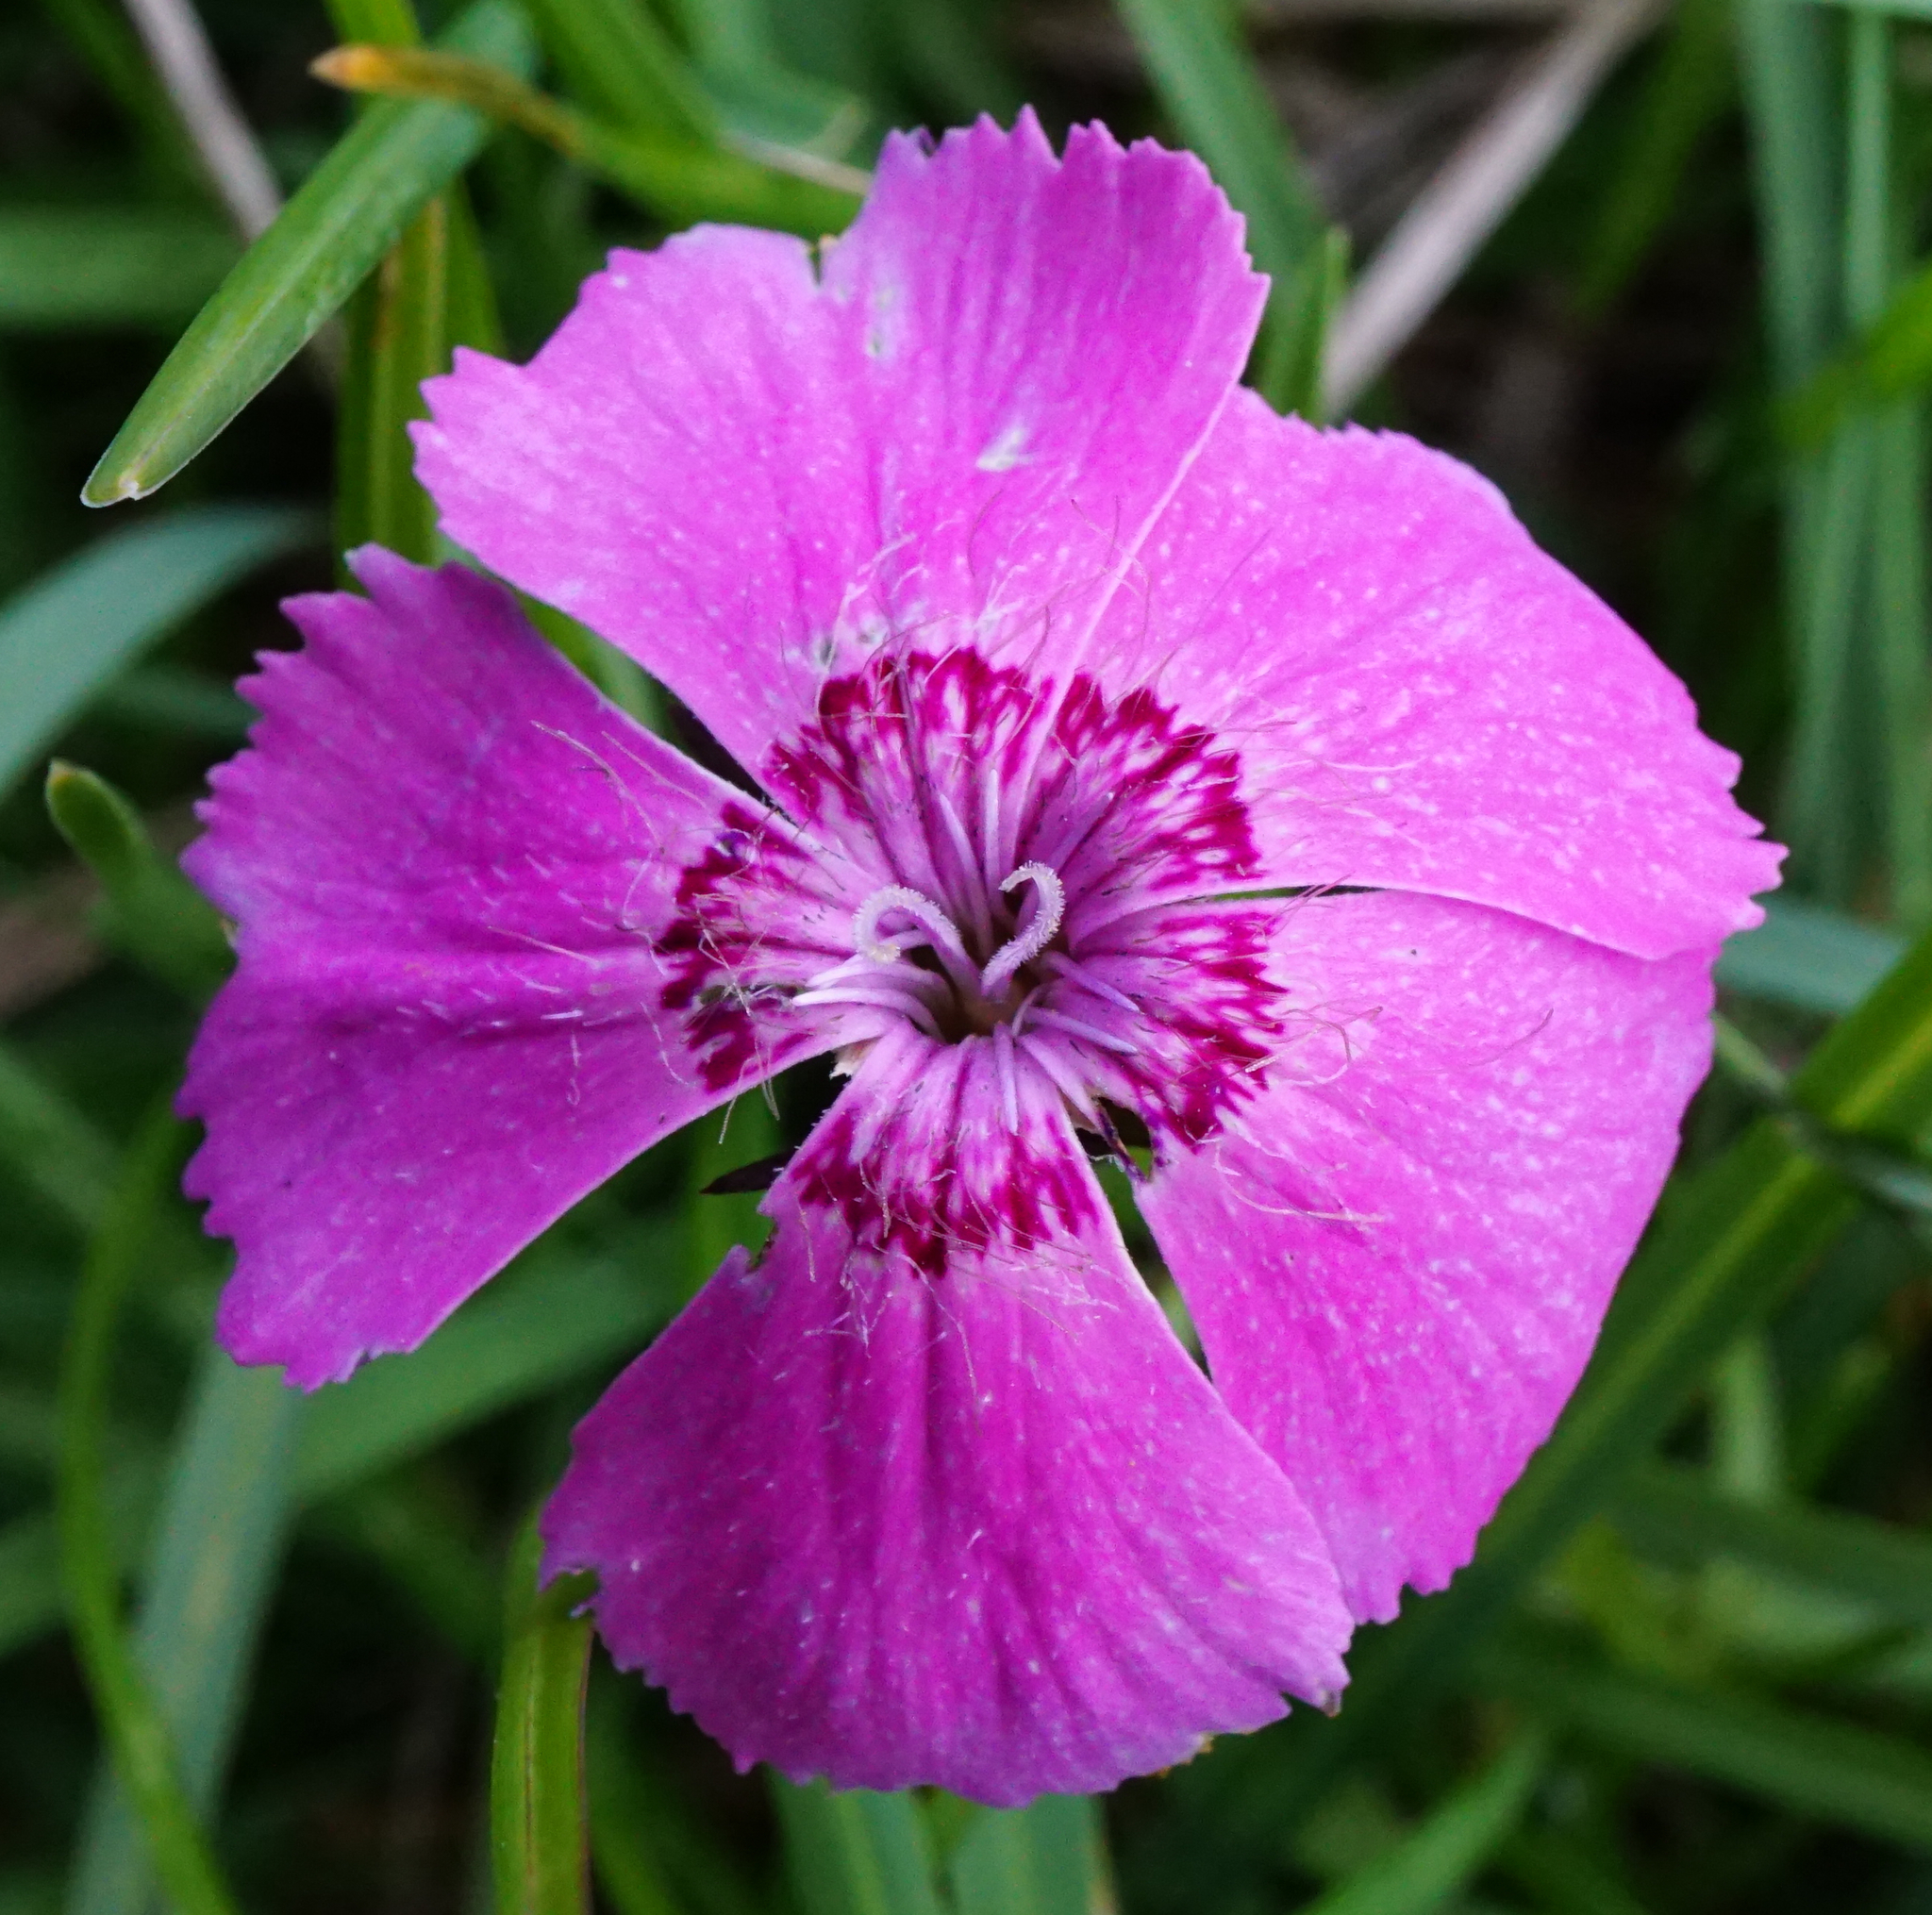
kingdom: Plantae
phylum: Tracheophyta
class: Magnoliopsida
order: Caryophyllales
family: Caryophyllaceae
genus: Dianthus
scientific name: Dianthus alpinus
